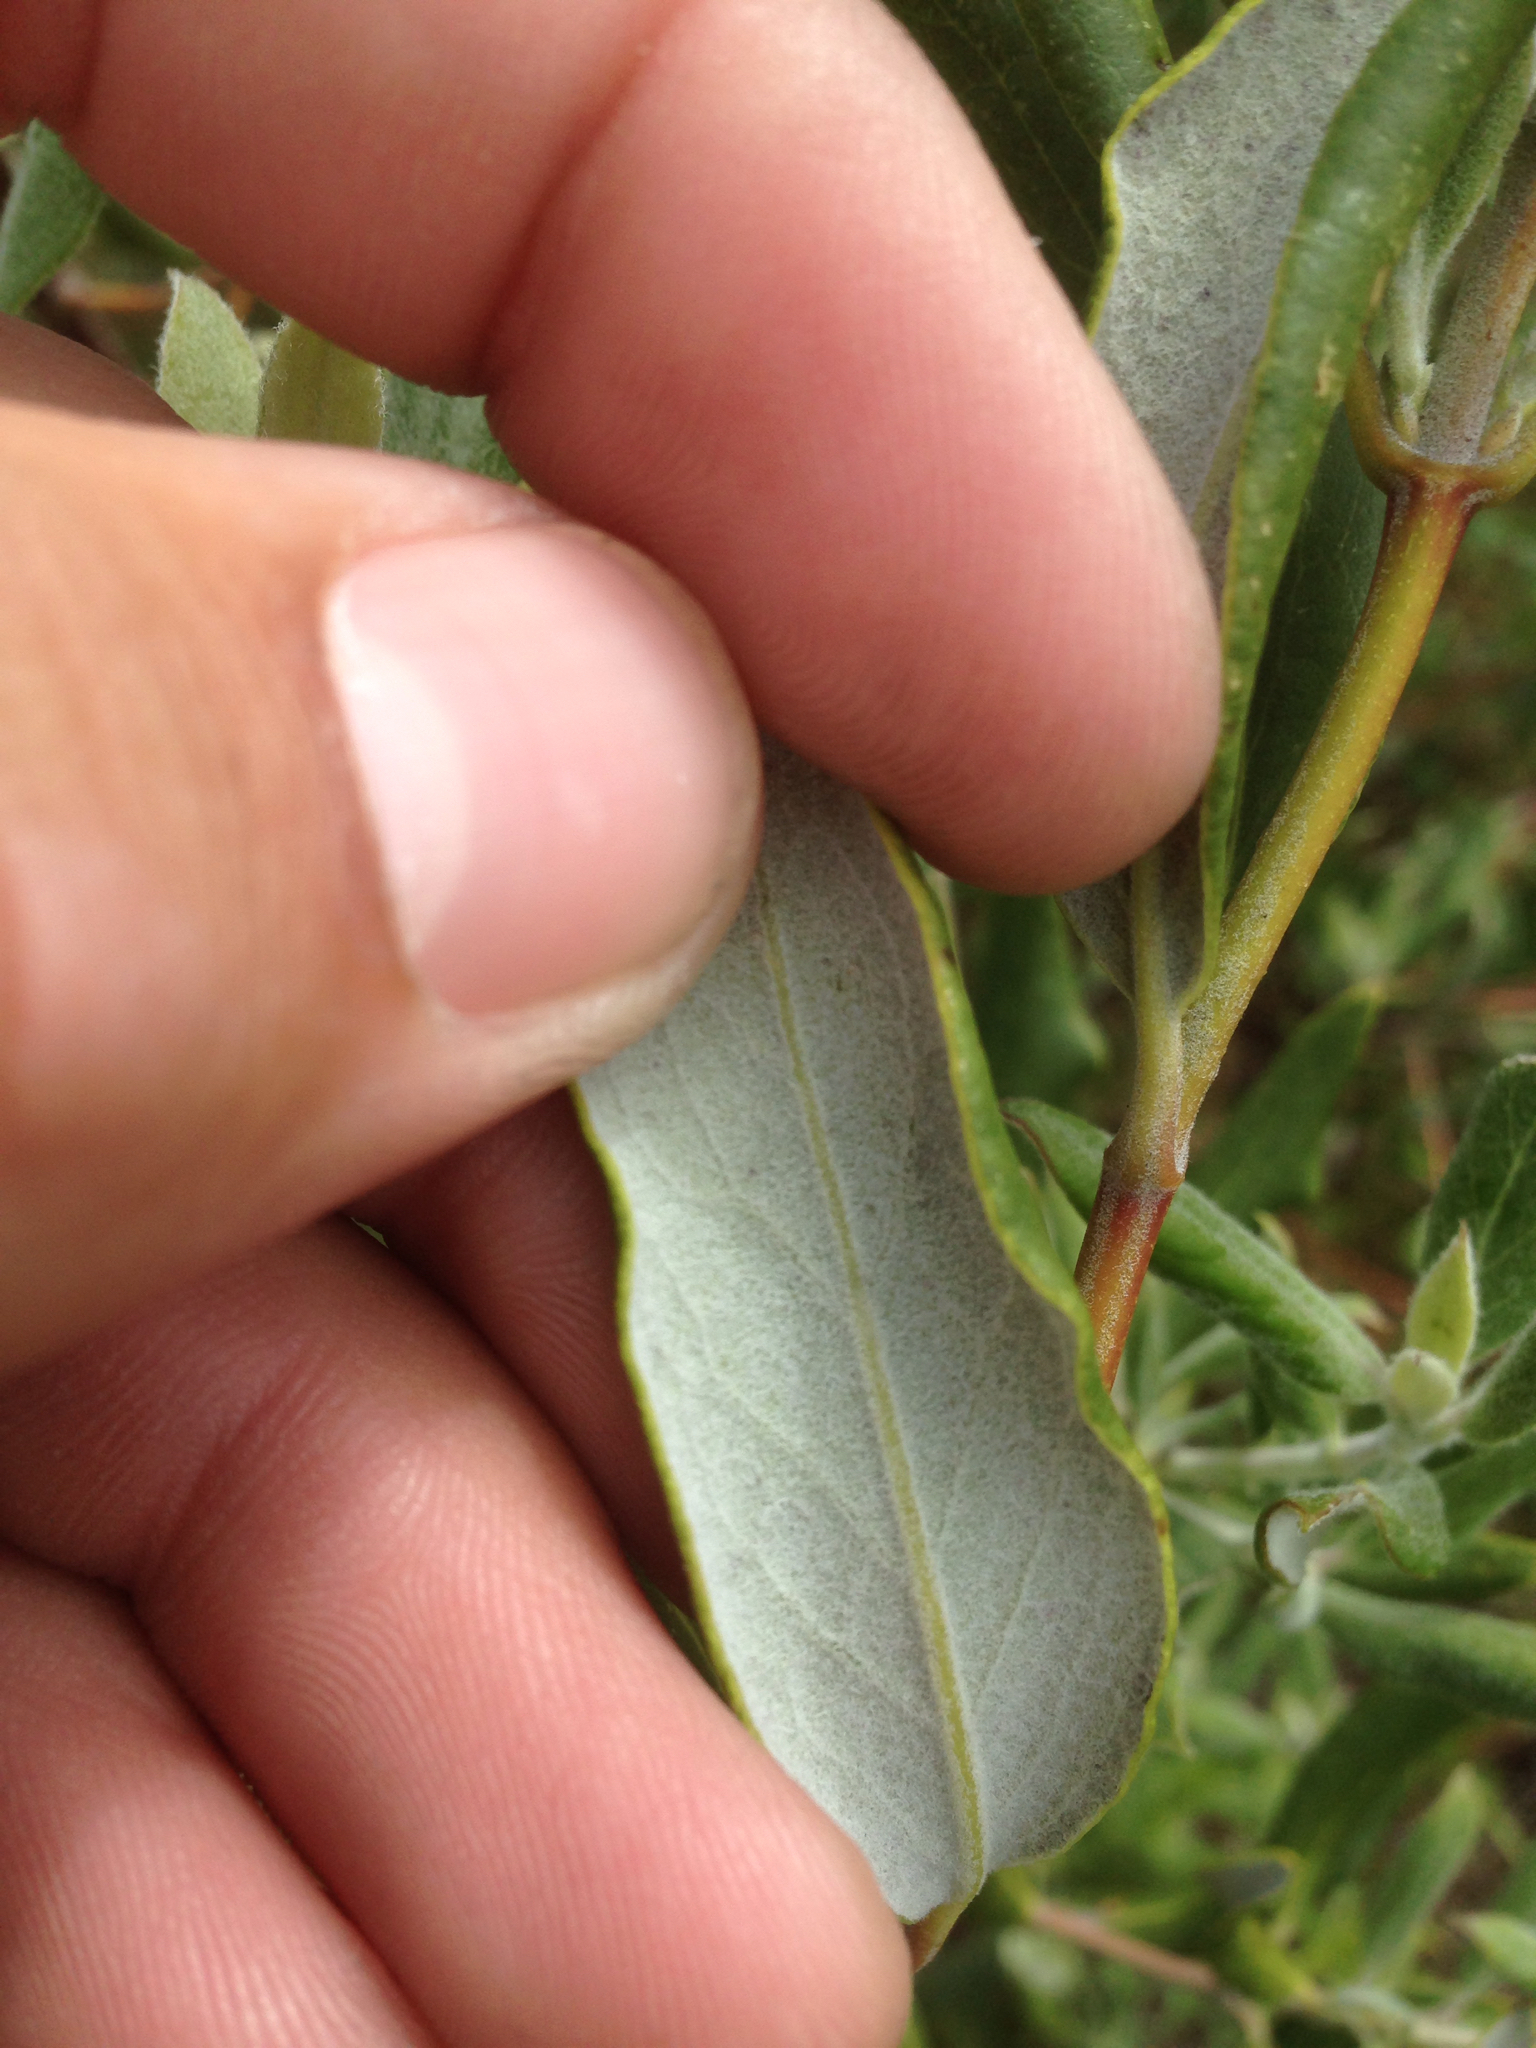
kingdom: Plantae
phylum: Tracheophyta
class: Magnoliopsida
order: Garryales
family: Garryaceae
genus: Garrya
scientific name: Garrya veatchii
